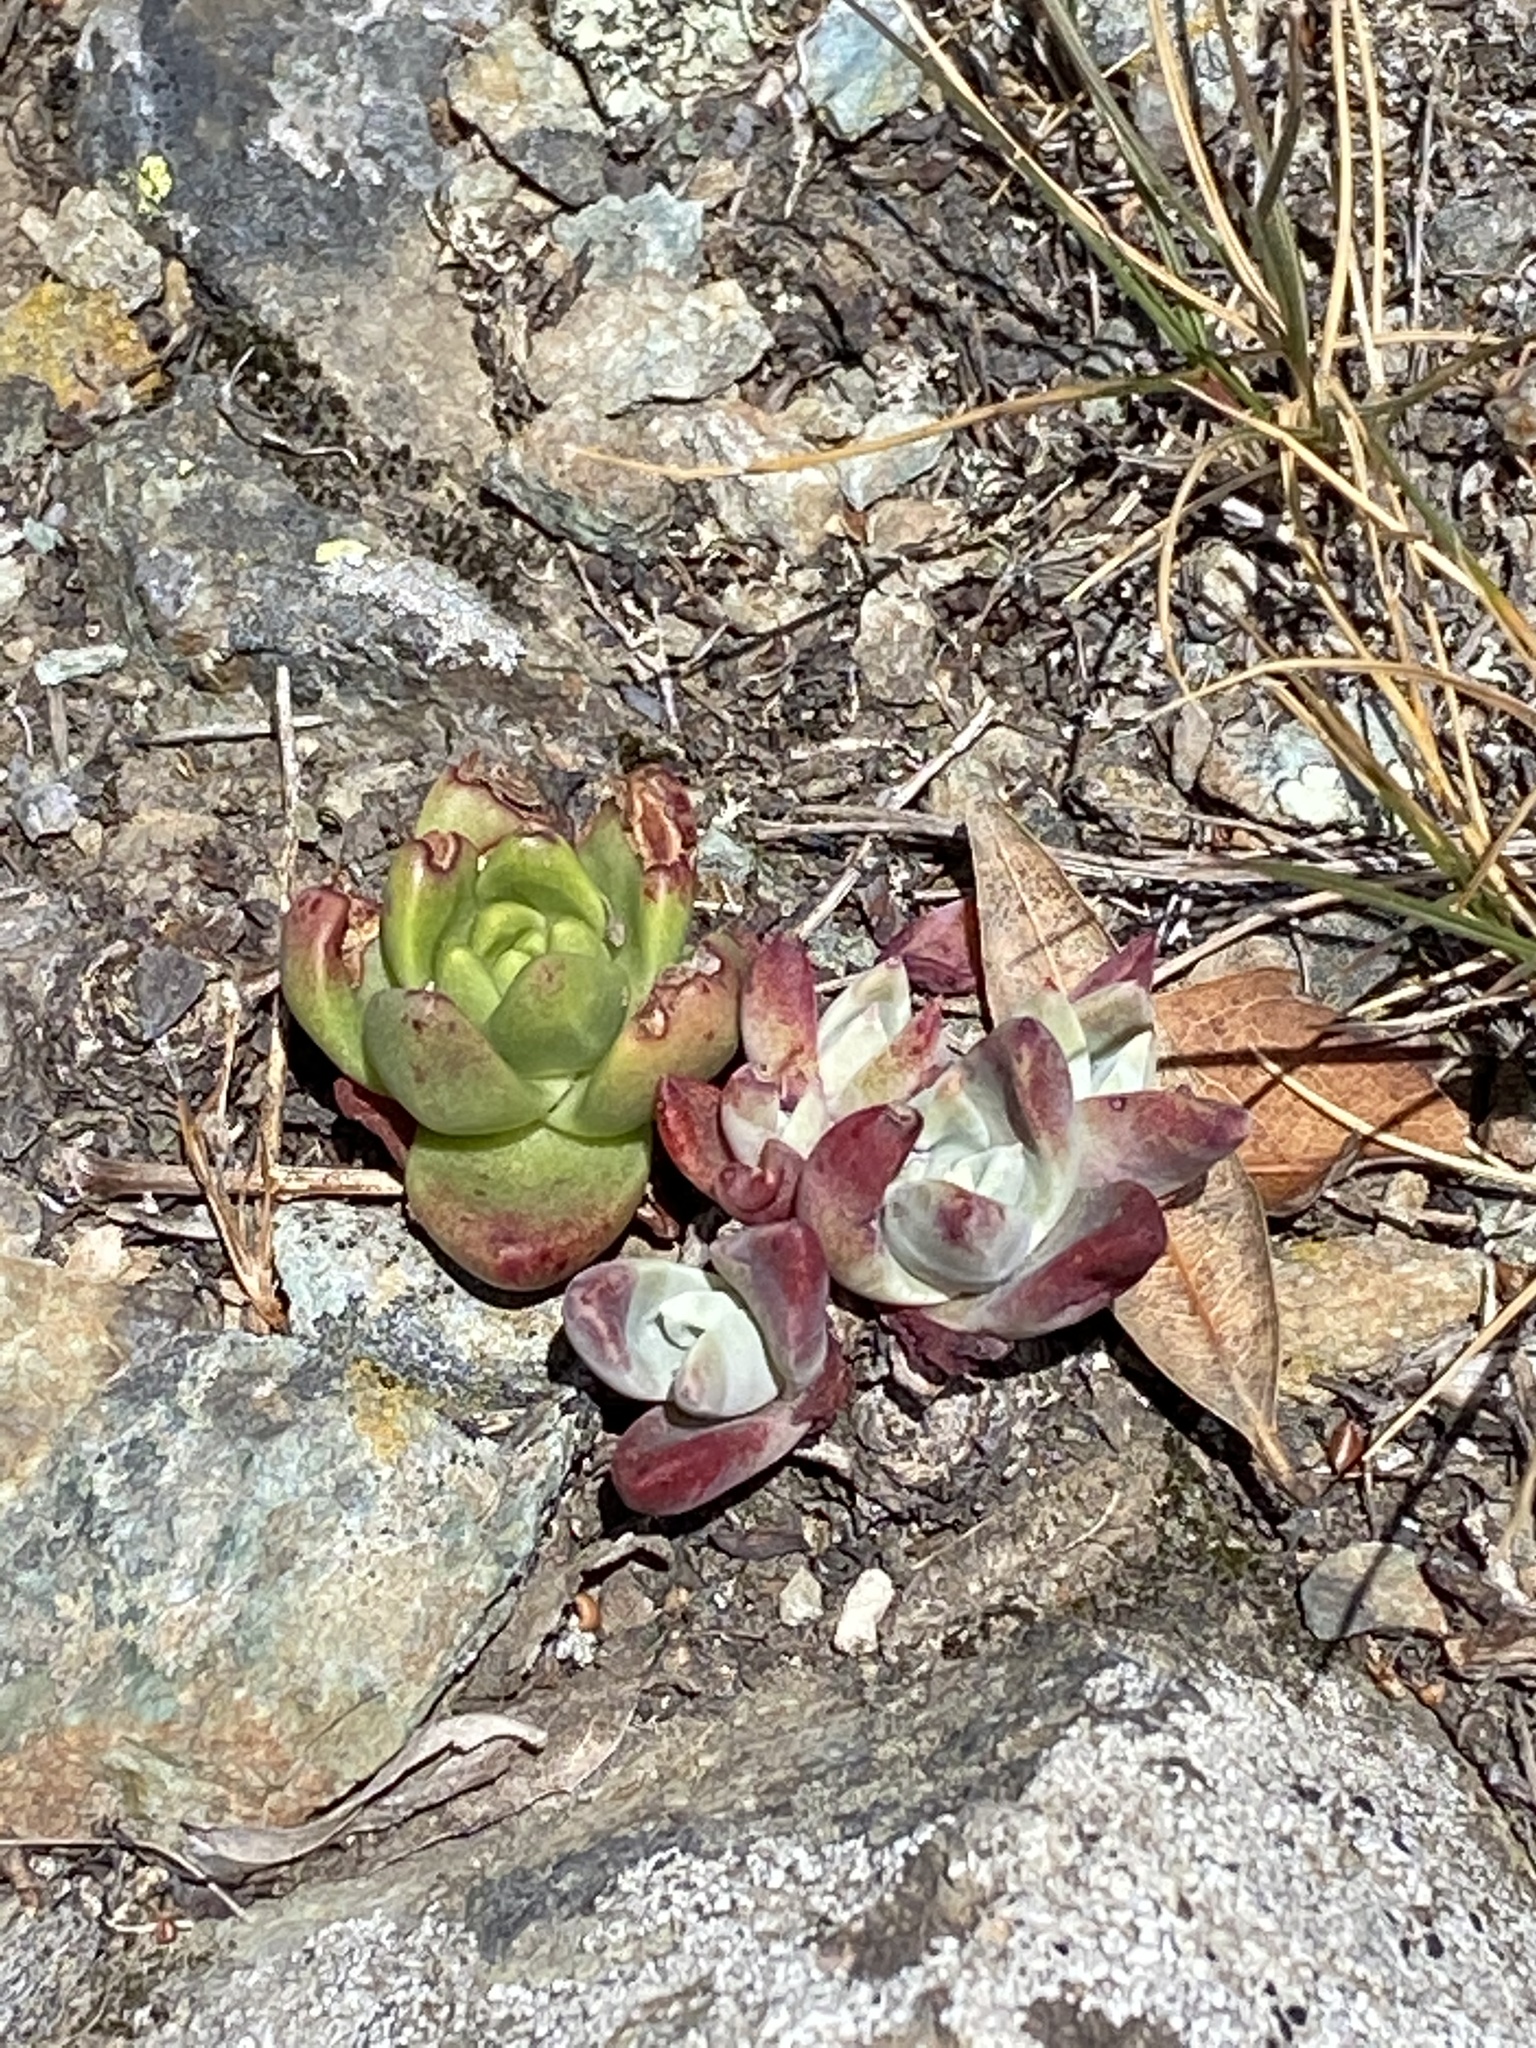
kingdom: Plantae
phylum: Tracheophyta
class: Magnoliopsida
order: Saxifragales
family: Crassulaceae
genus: Dudleya
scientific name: Dudleya farinosa
